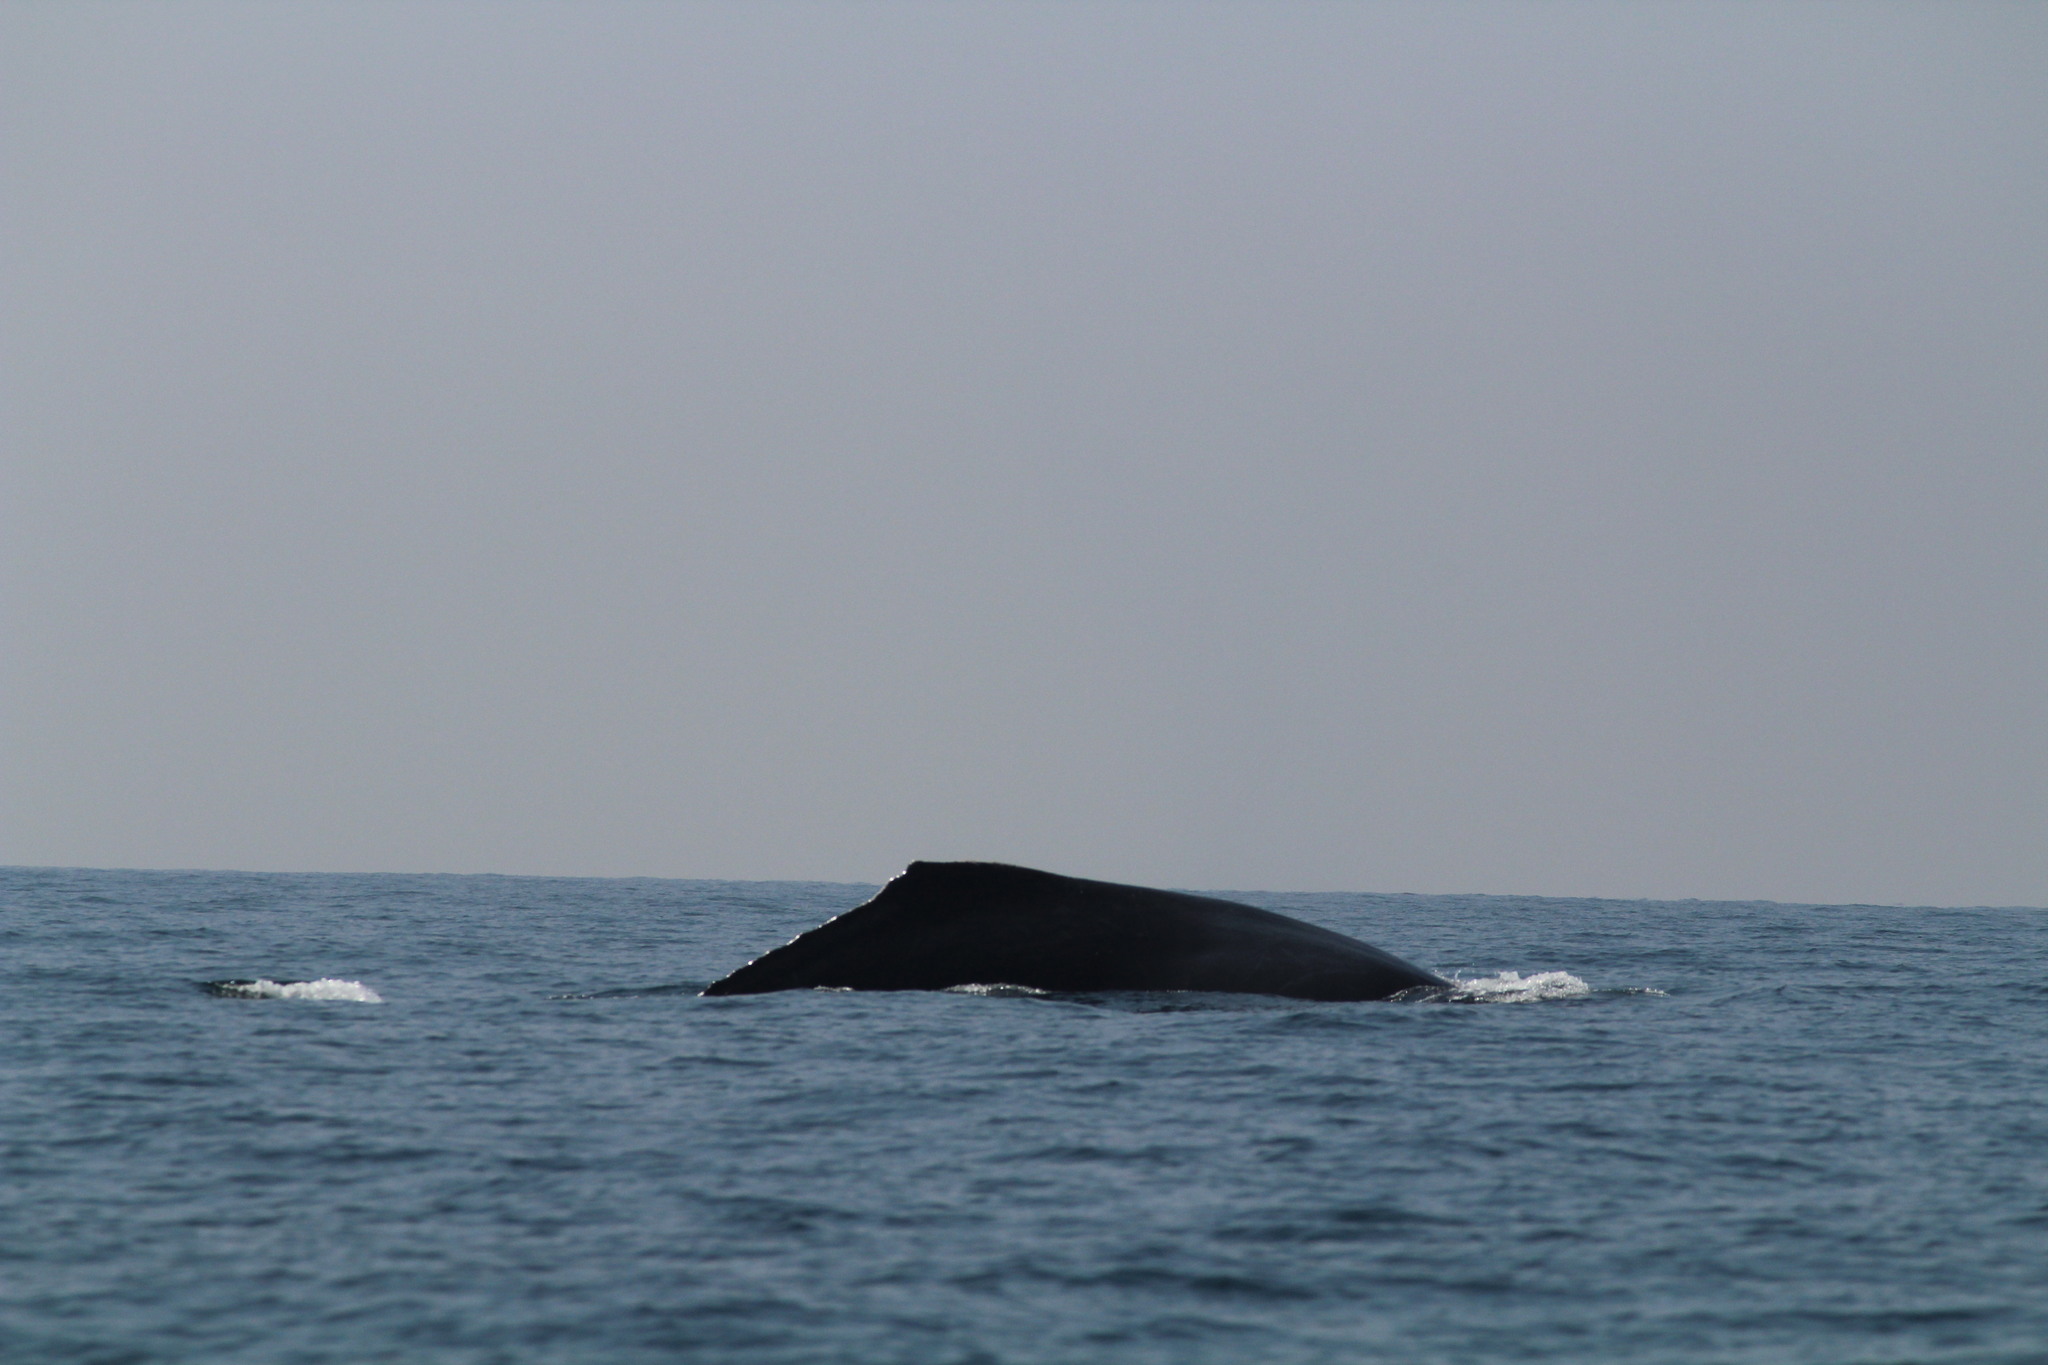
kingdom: Animalia
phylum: Chordata
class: Mammalia
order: Cetacea
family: Balaenopteridae
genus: Megaptera
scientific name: Megaptera novaeangliae
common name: Humpback whale
